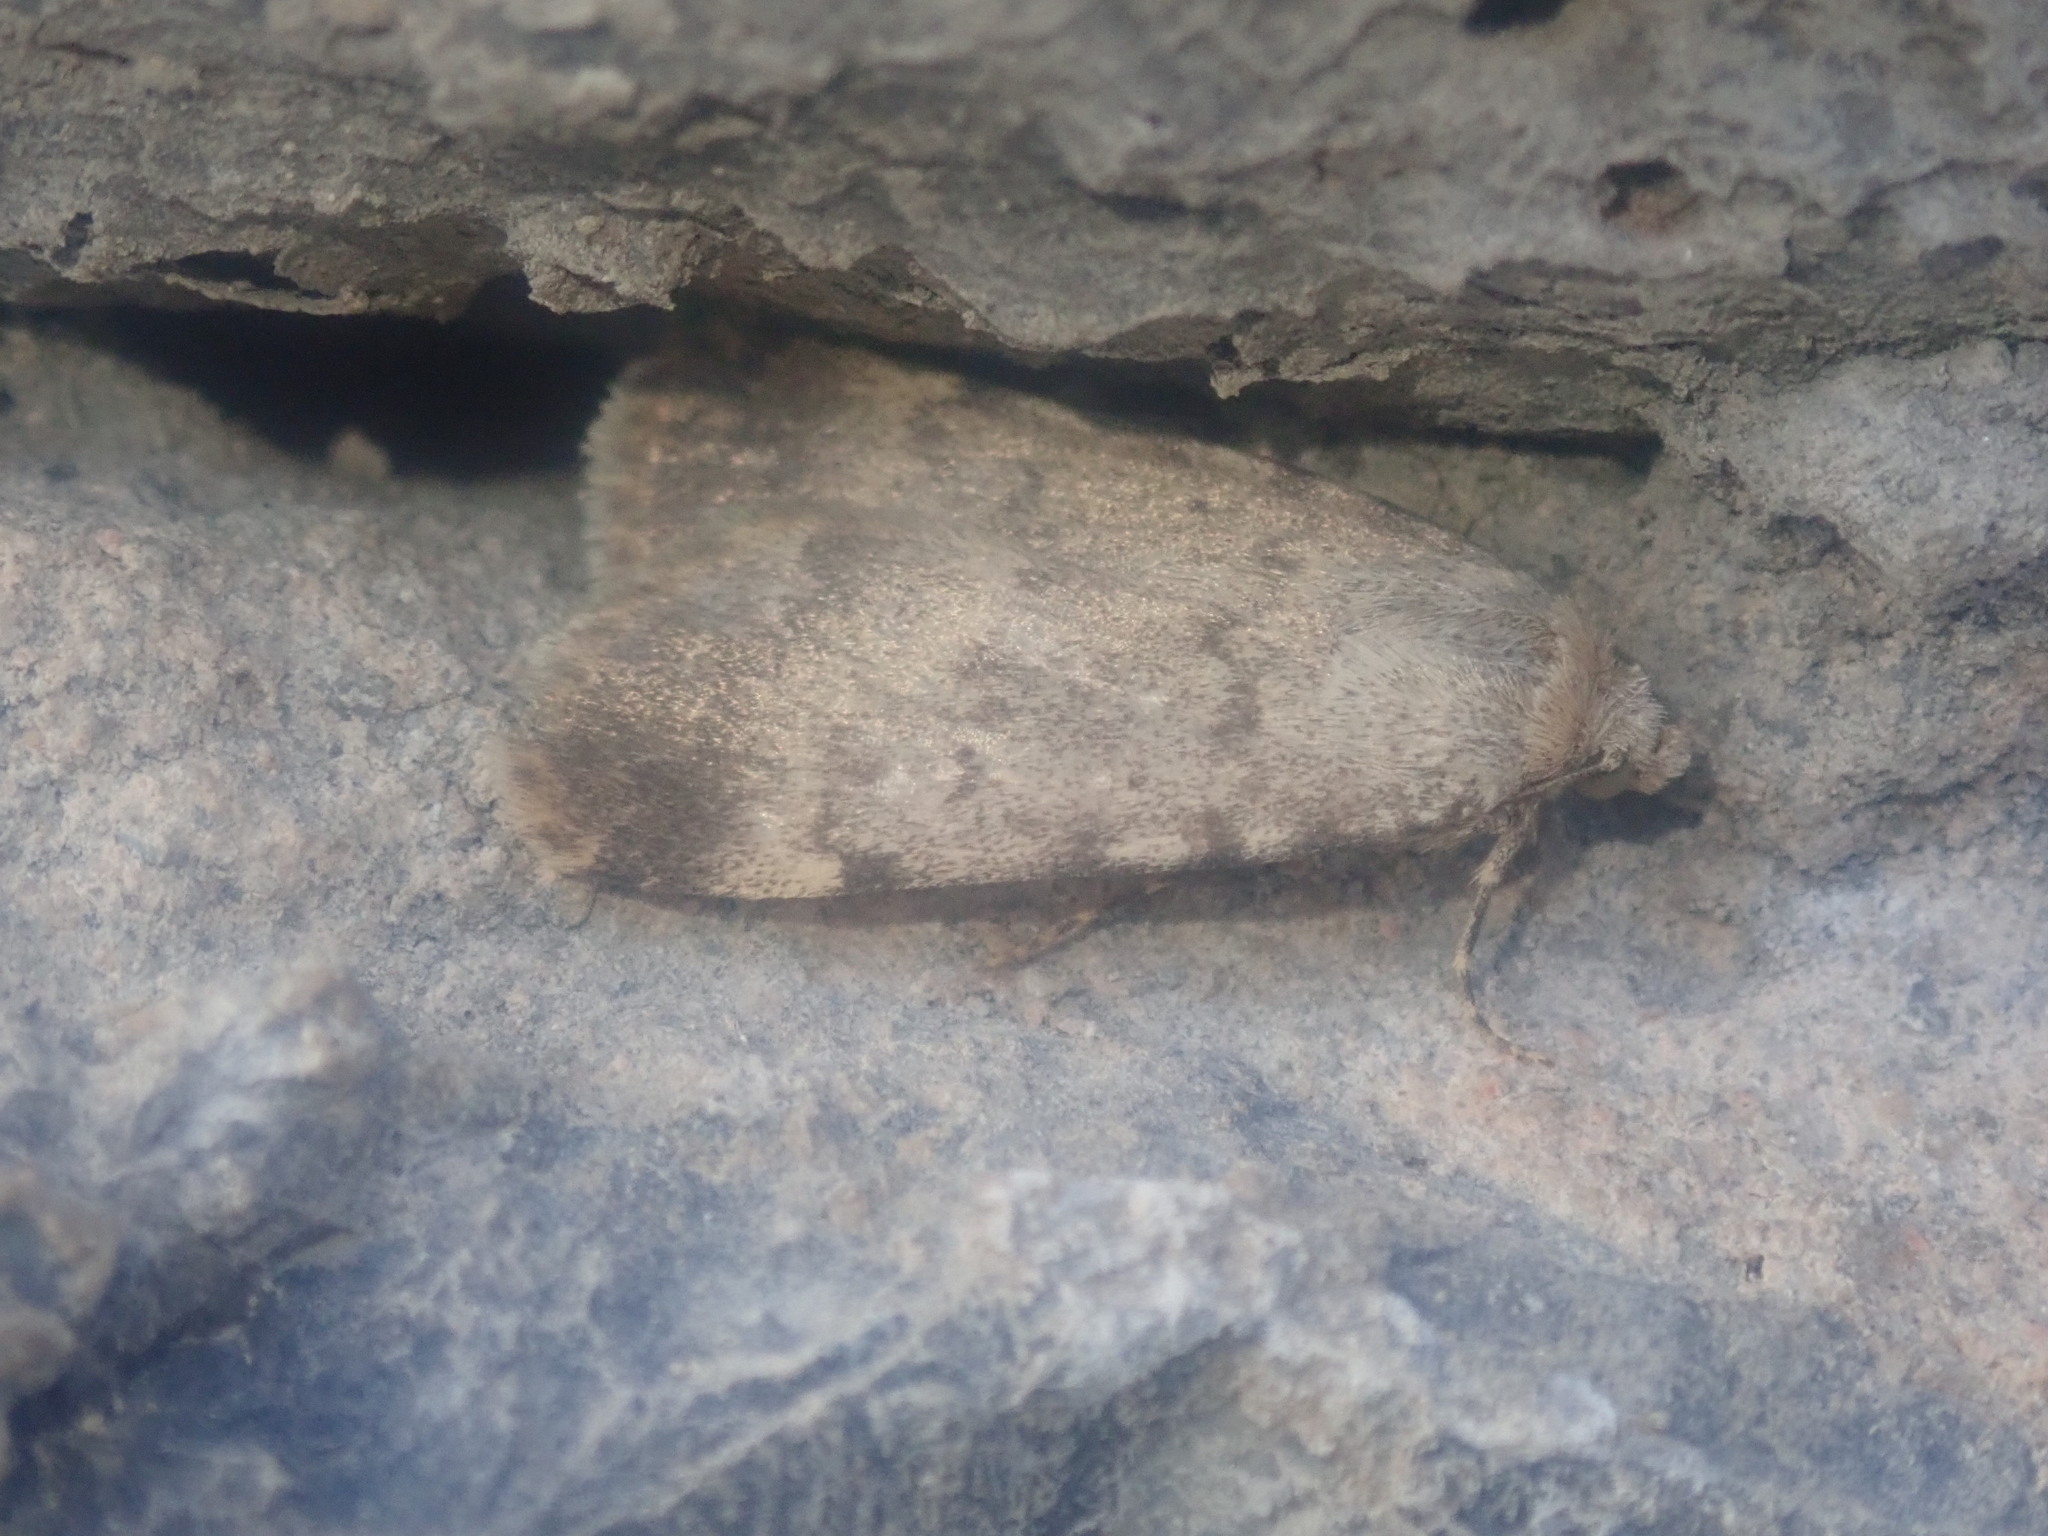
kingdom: Animalia
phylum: Arthropoda
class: Insecta
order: Lepidoptera
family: Erebidae
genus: Autophila
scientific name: Autophila dilucida
